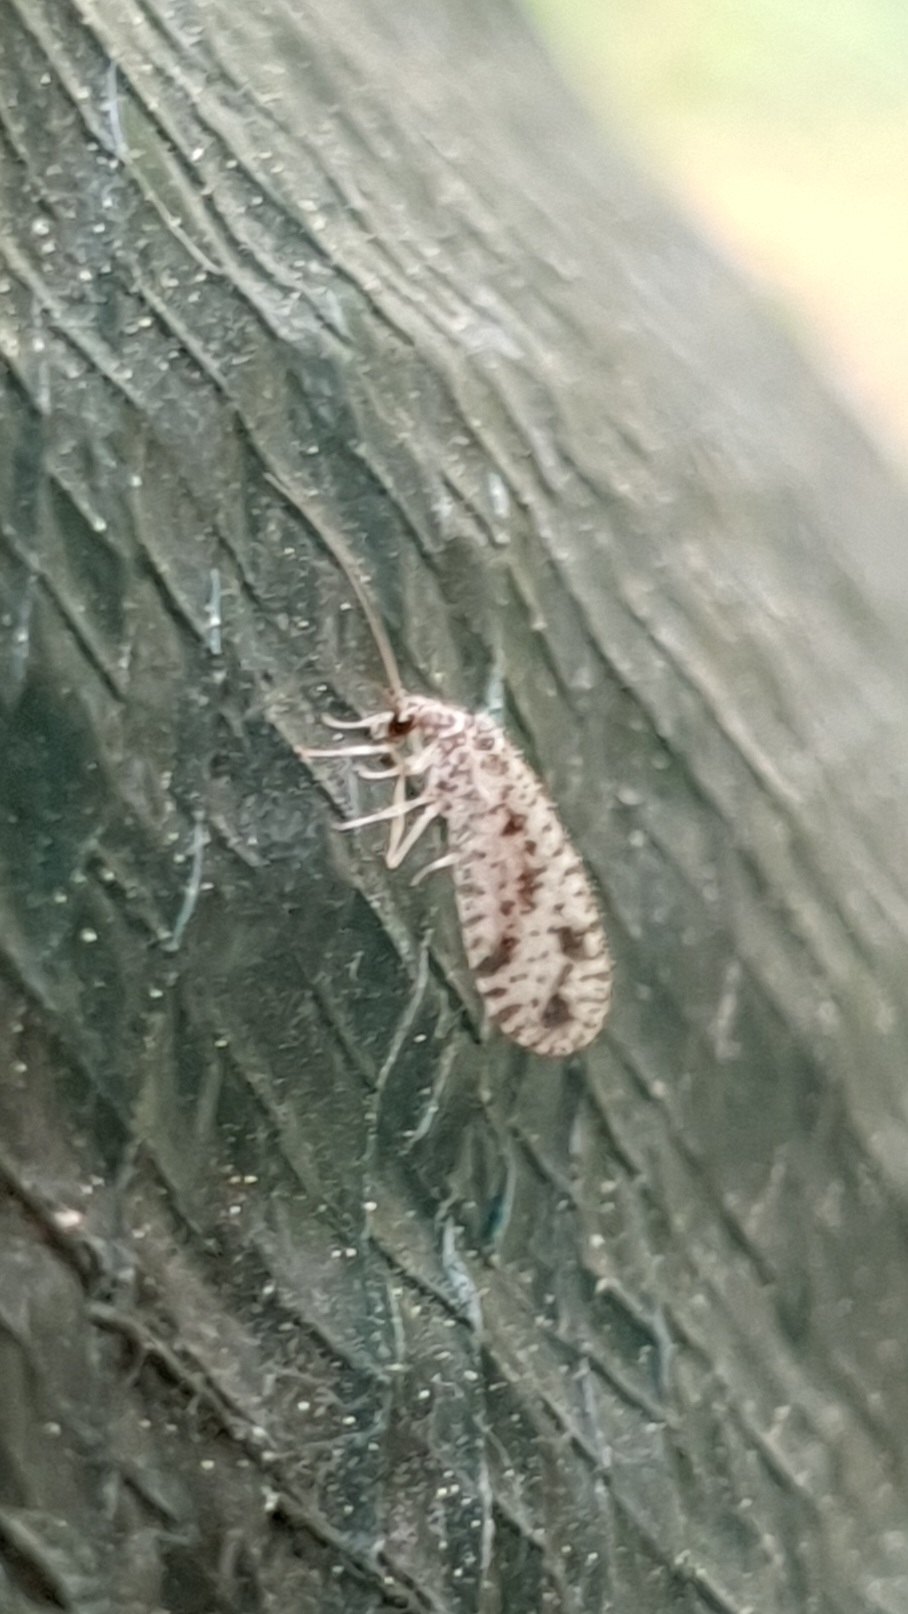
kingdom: Animalia
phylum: Arthropoda
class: Insecta
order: Neuroptera
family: Hemerobiidae
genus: Micromus
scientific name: Micromus variegatus
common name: Brown lacewing
